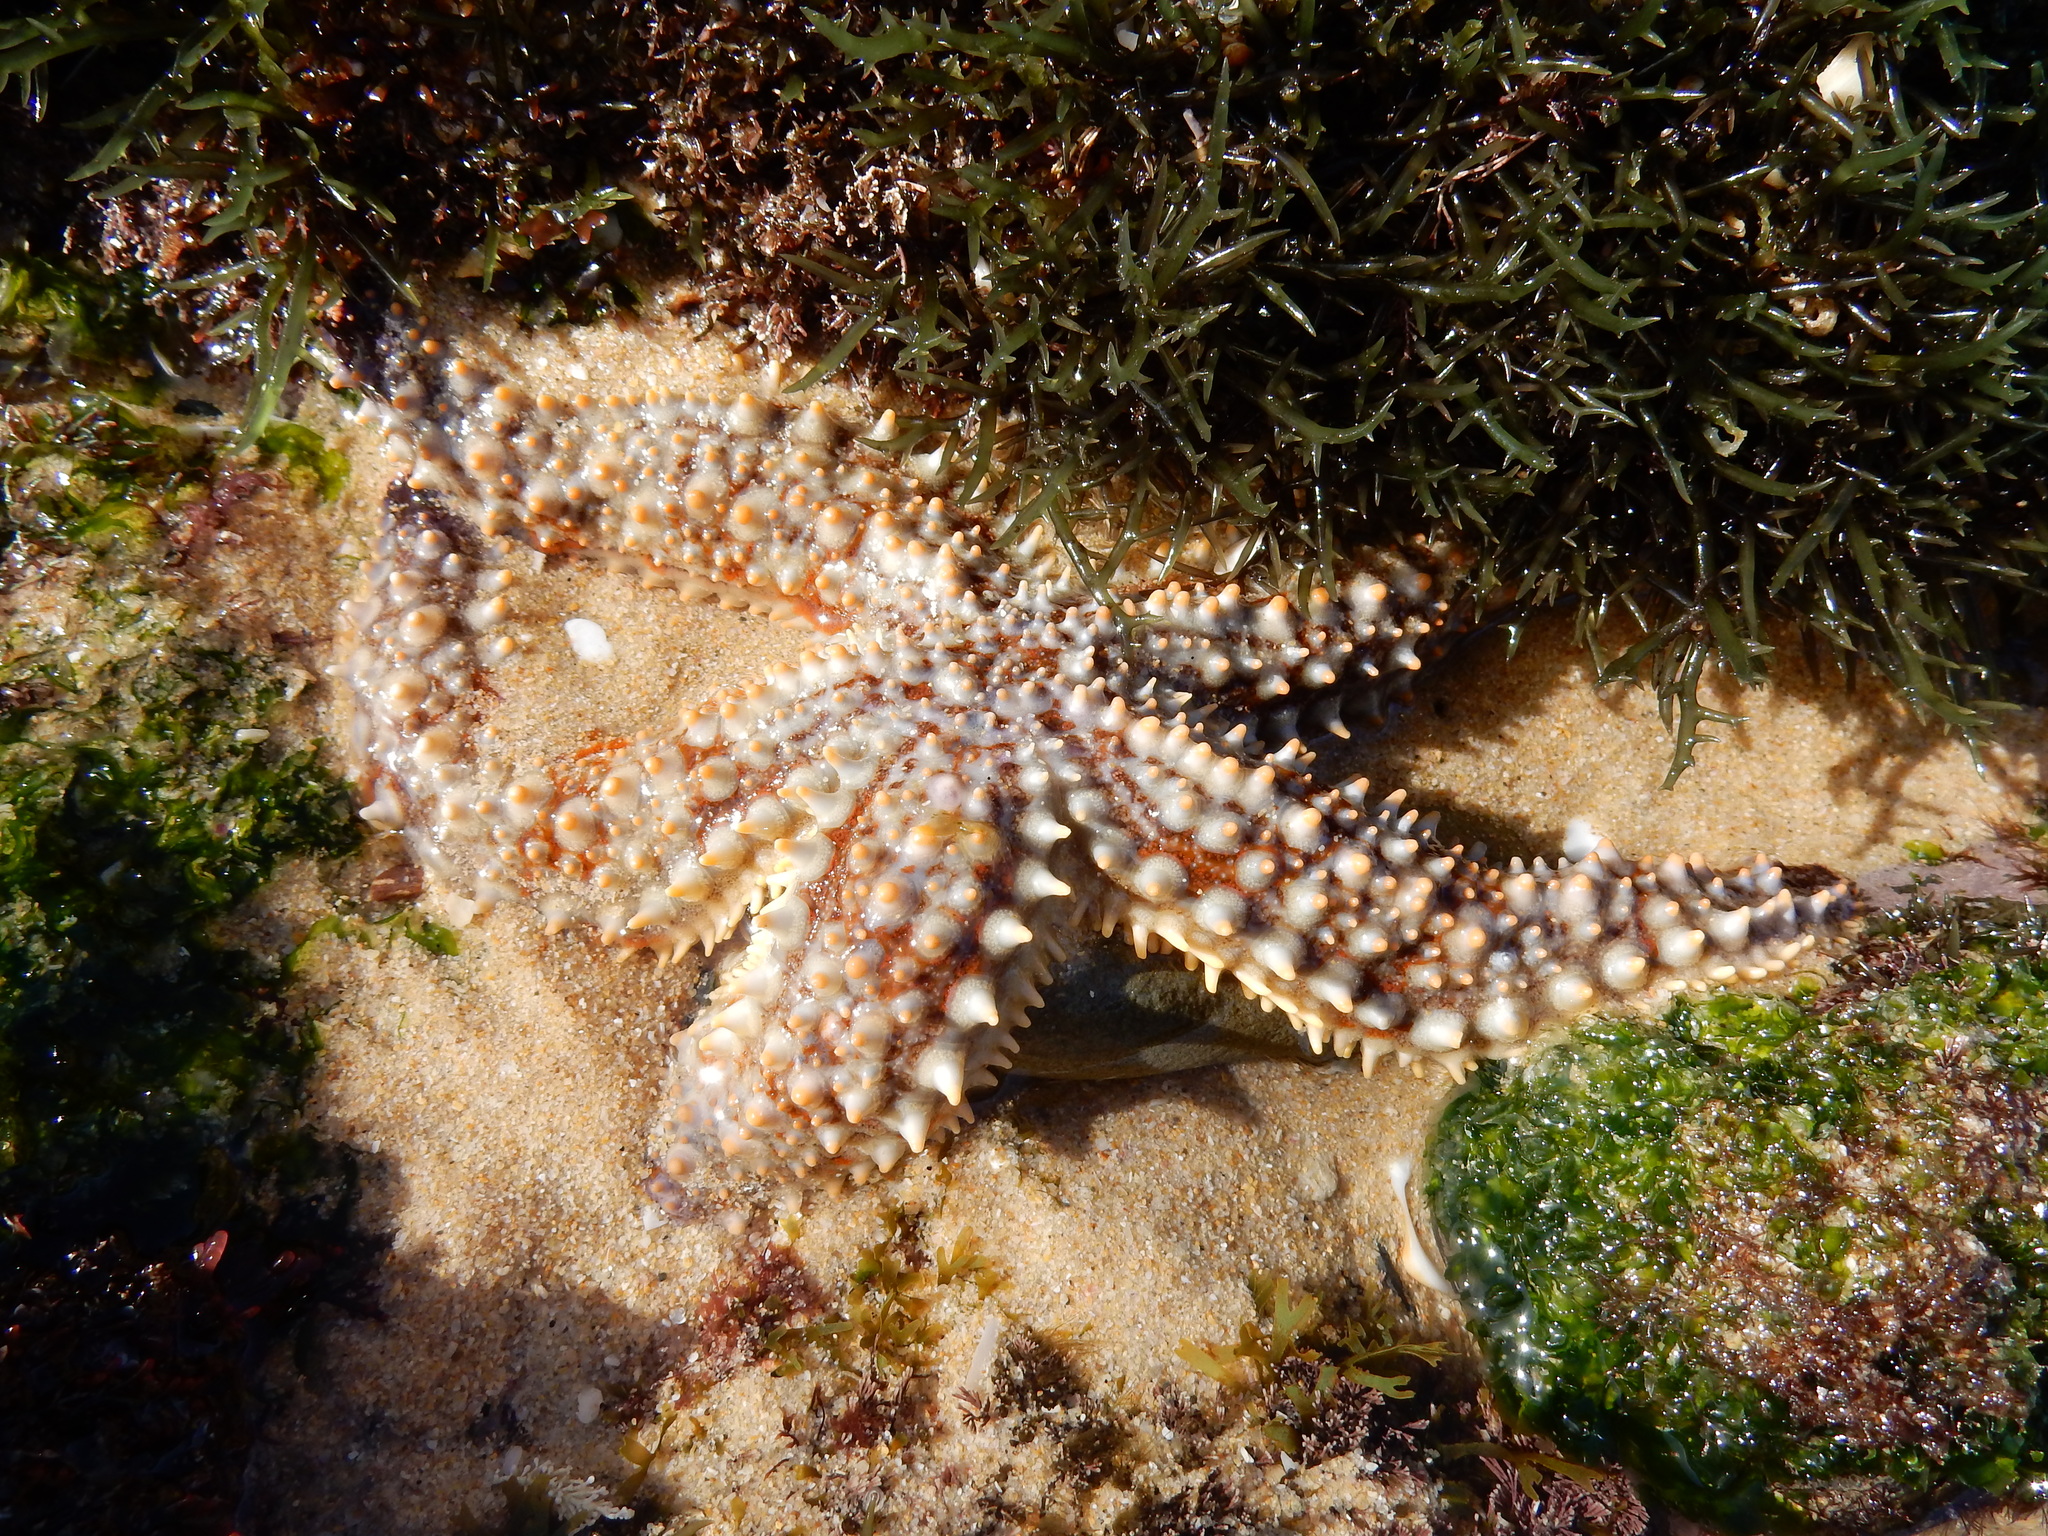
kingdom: Animalia
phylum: Echinodermata
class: Asteroidea
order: Forcipulatida
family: Asteriidae
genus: Marthasterias
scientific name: Marthasterias africana
